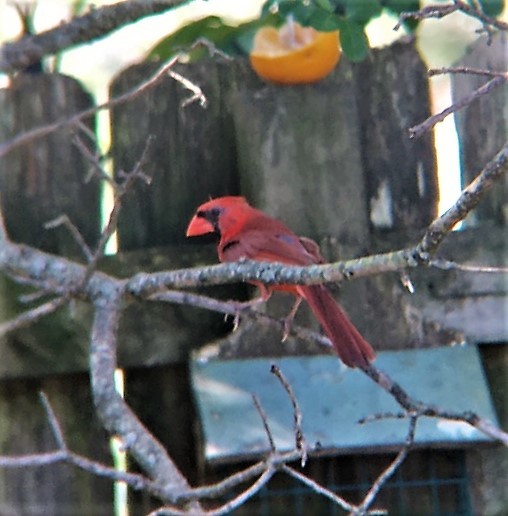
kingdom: Animalia
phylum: Chordata
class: Aves
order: Passeriformes
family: Cardinalidae
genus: Cardinalis
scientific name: Cardinalis cardinalis
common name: Northern cardinal
